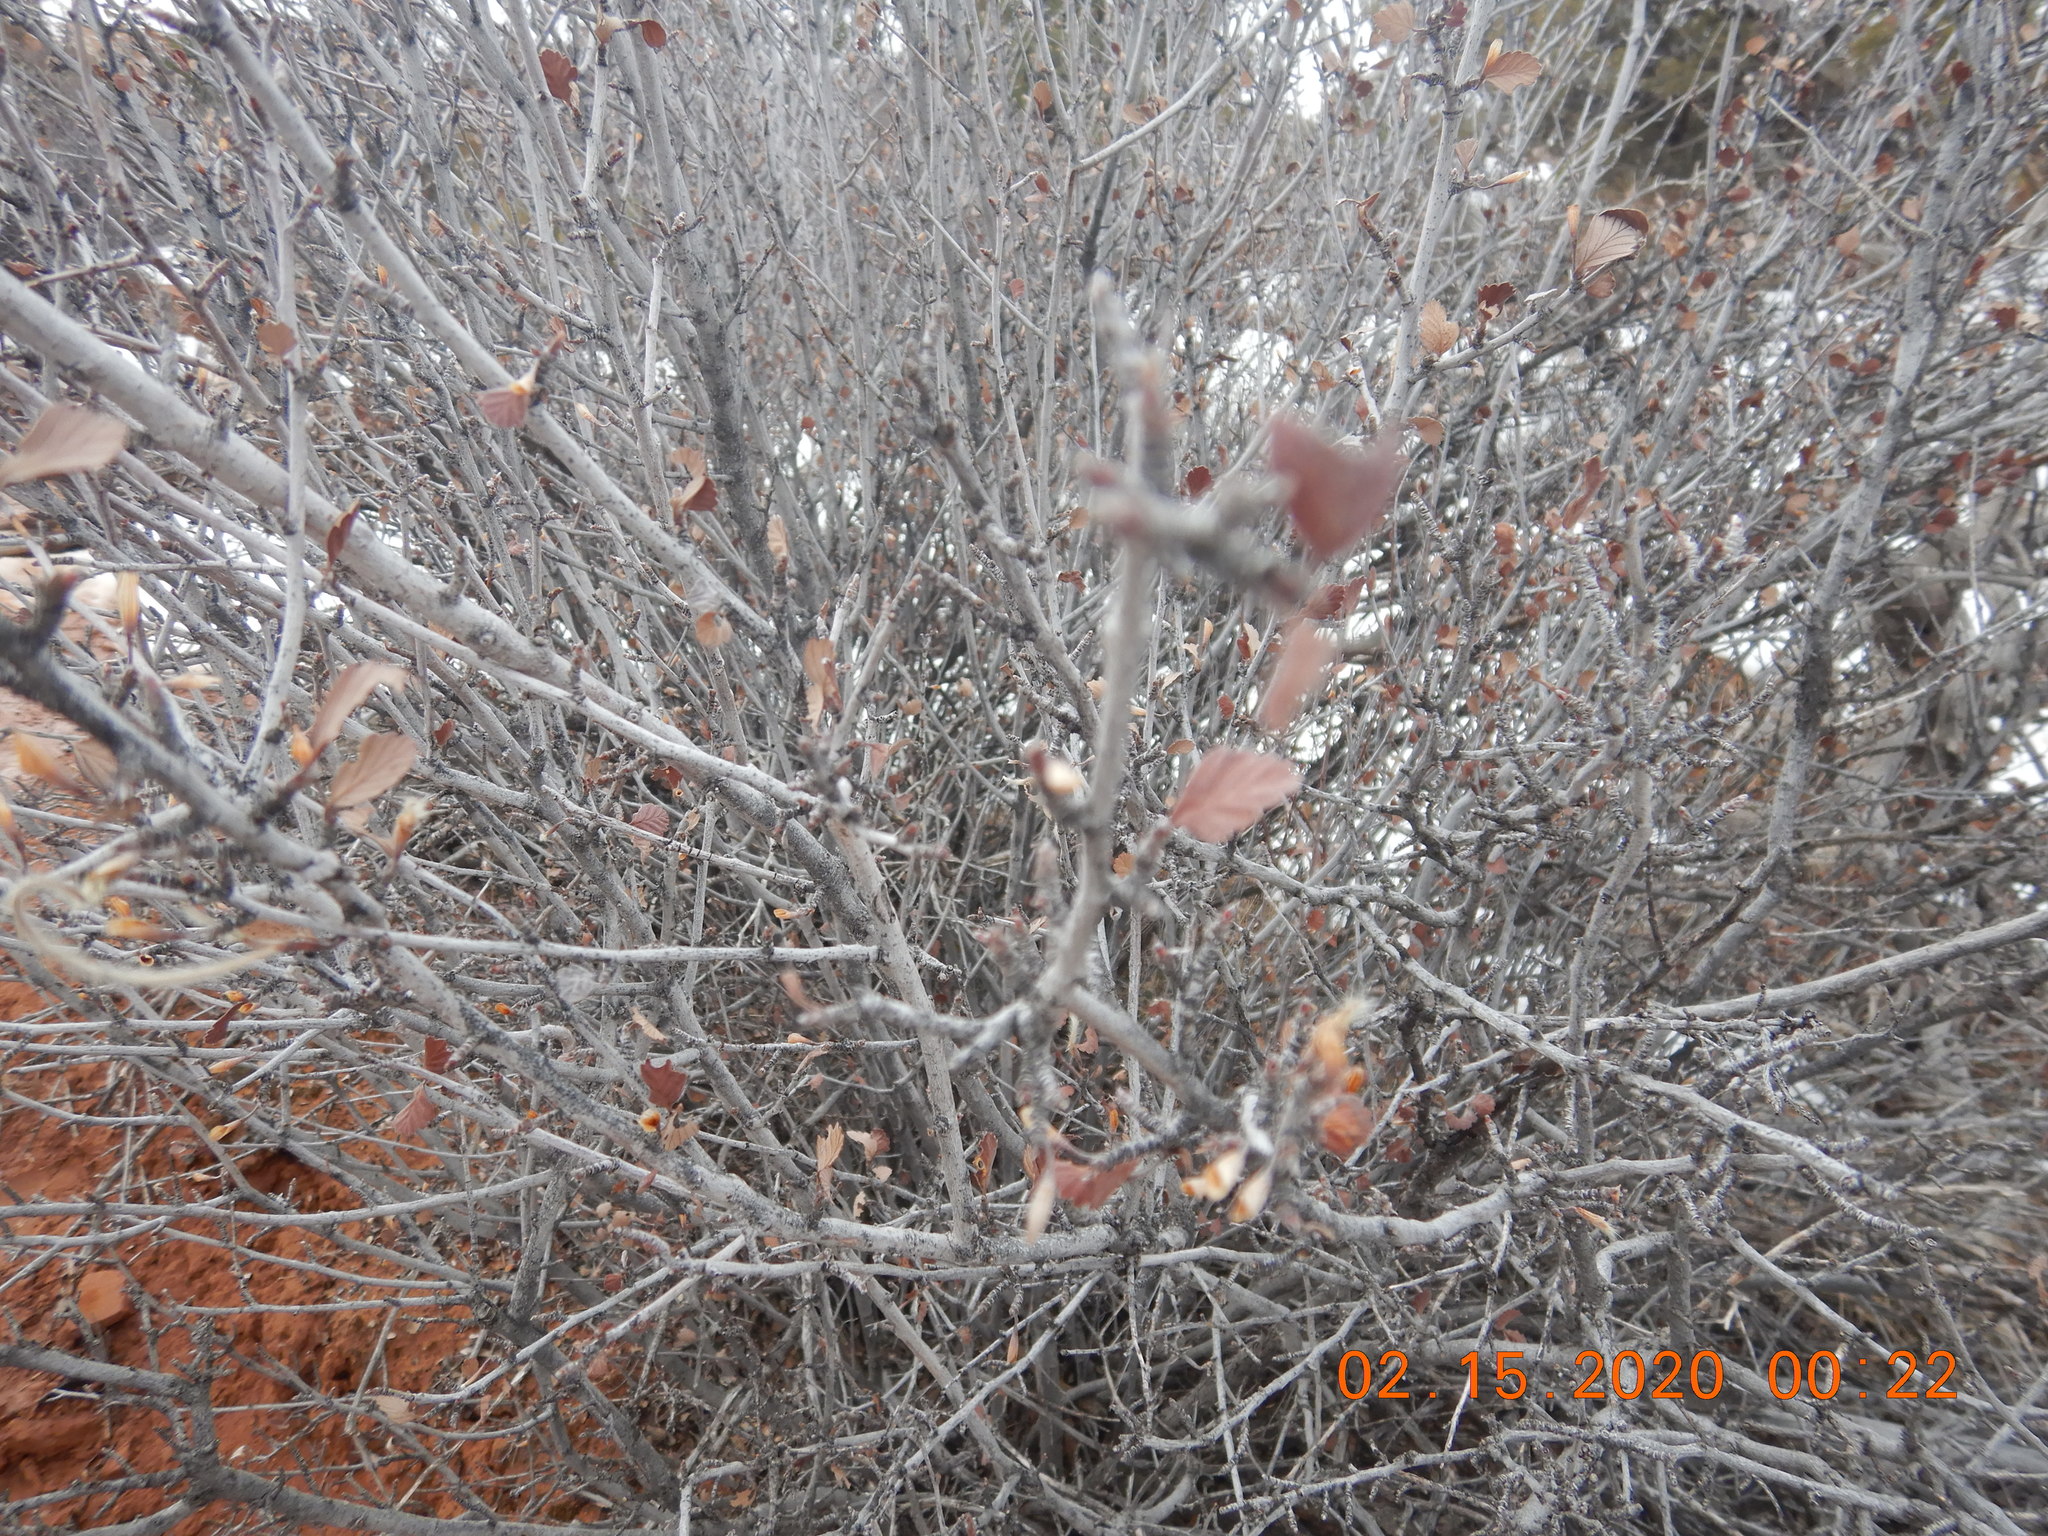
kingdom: Plantae
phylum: Tracheophyta
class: Magnoliopsida
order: Rosales
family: Rosaceae
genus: Cercocarpus
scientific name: Cercocarpus montanus
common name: Alder-leaf cercocarpus
